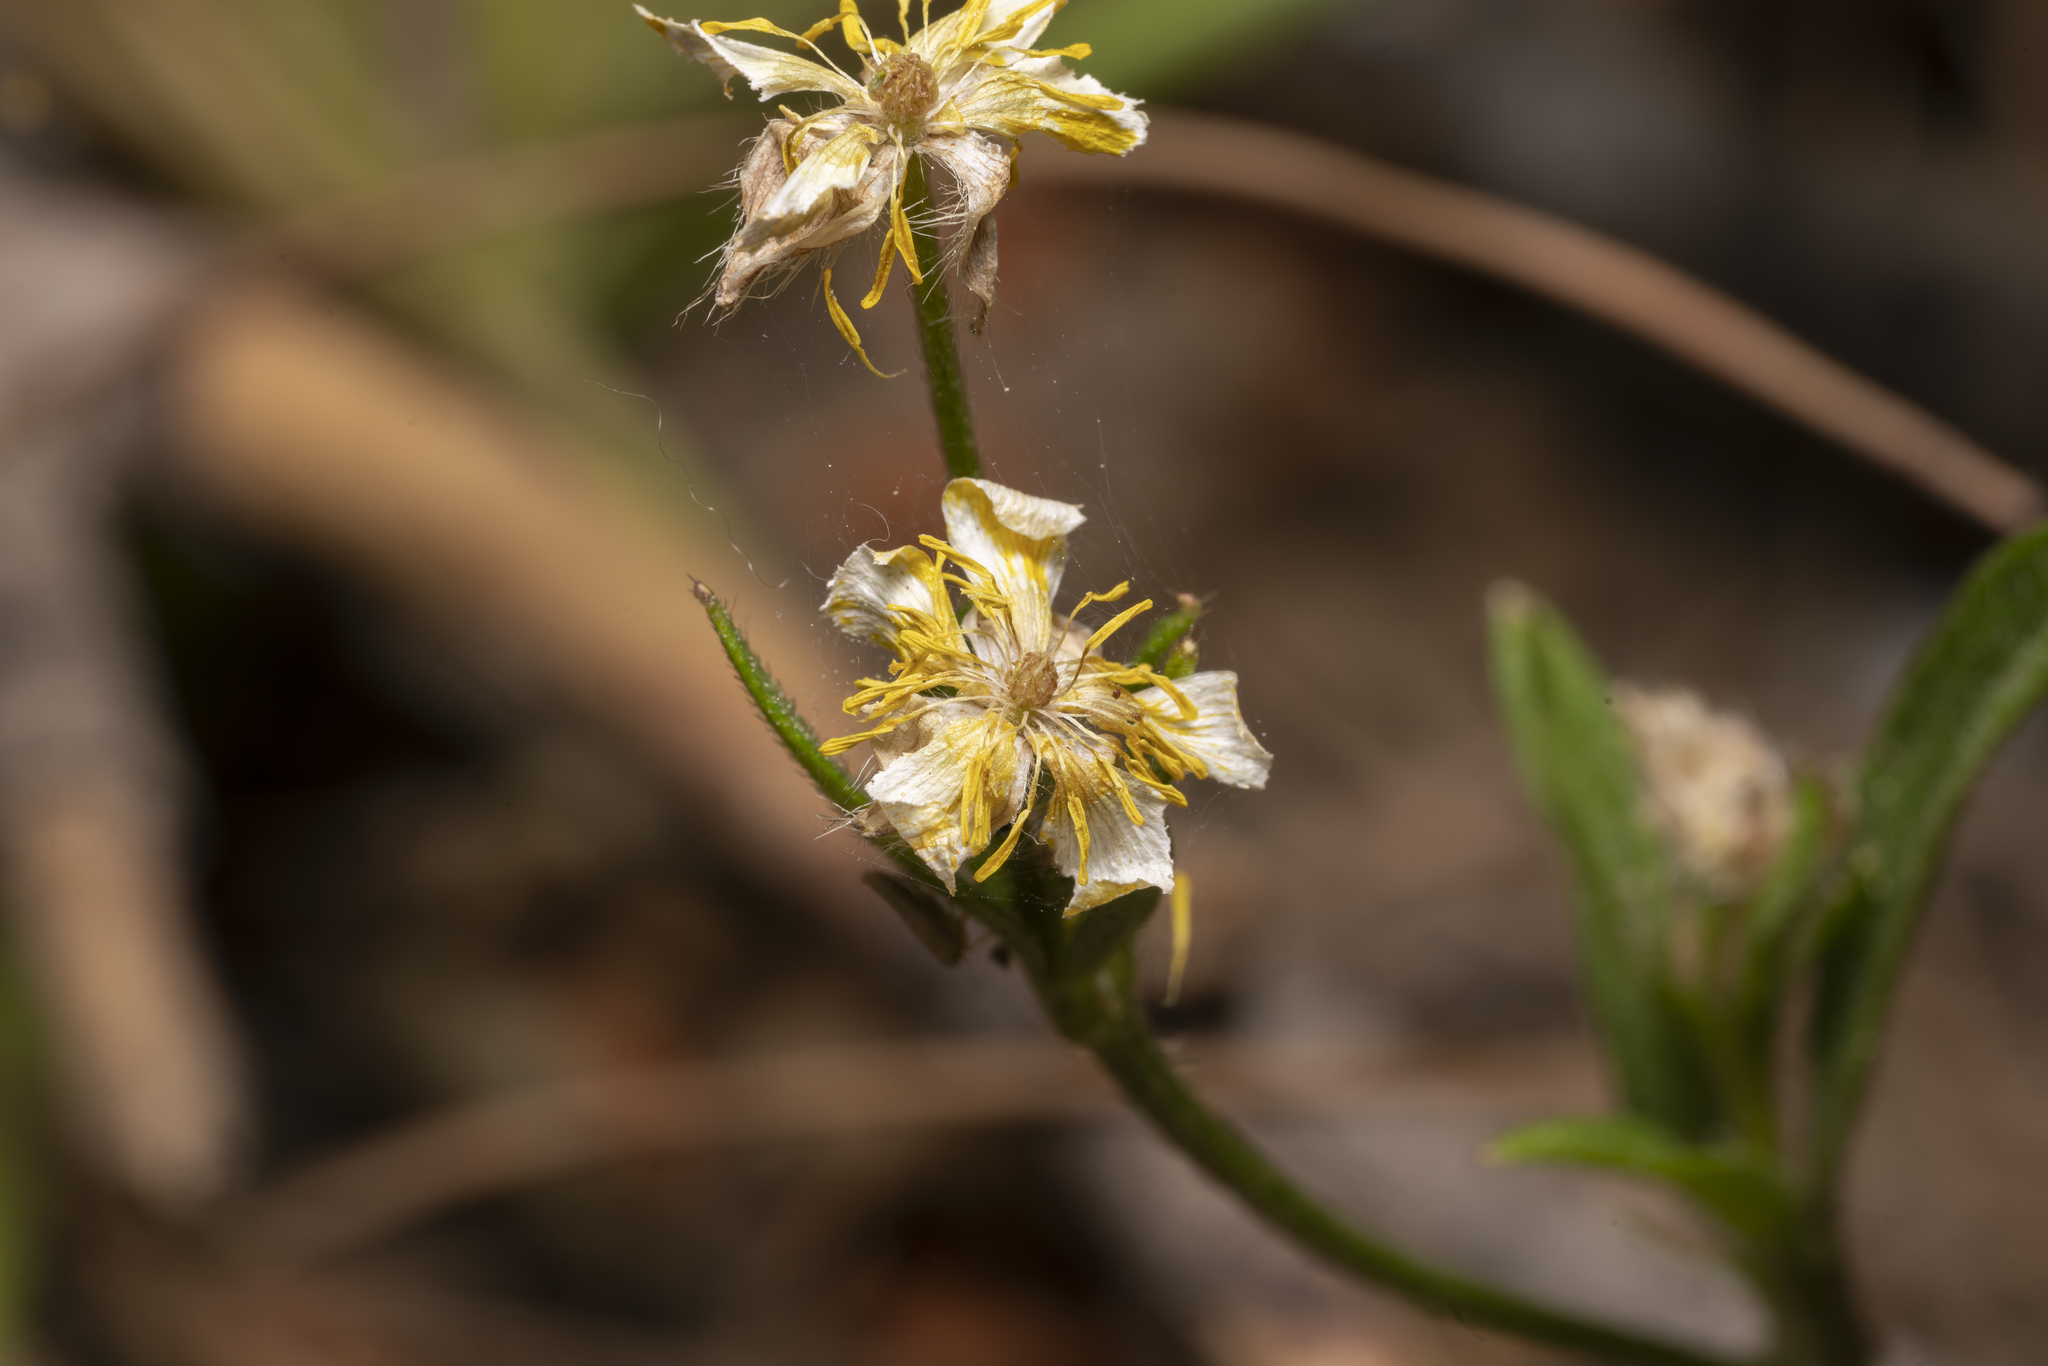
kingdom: Plantae
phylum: Tracheophyta
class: Magnoliopsida
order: Ranunculales
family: Ranunculaceae
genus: Ranunculus
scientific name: Ranunculus neapolitanus
